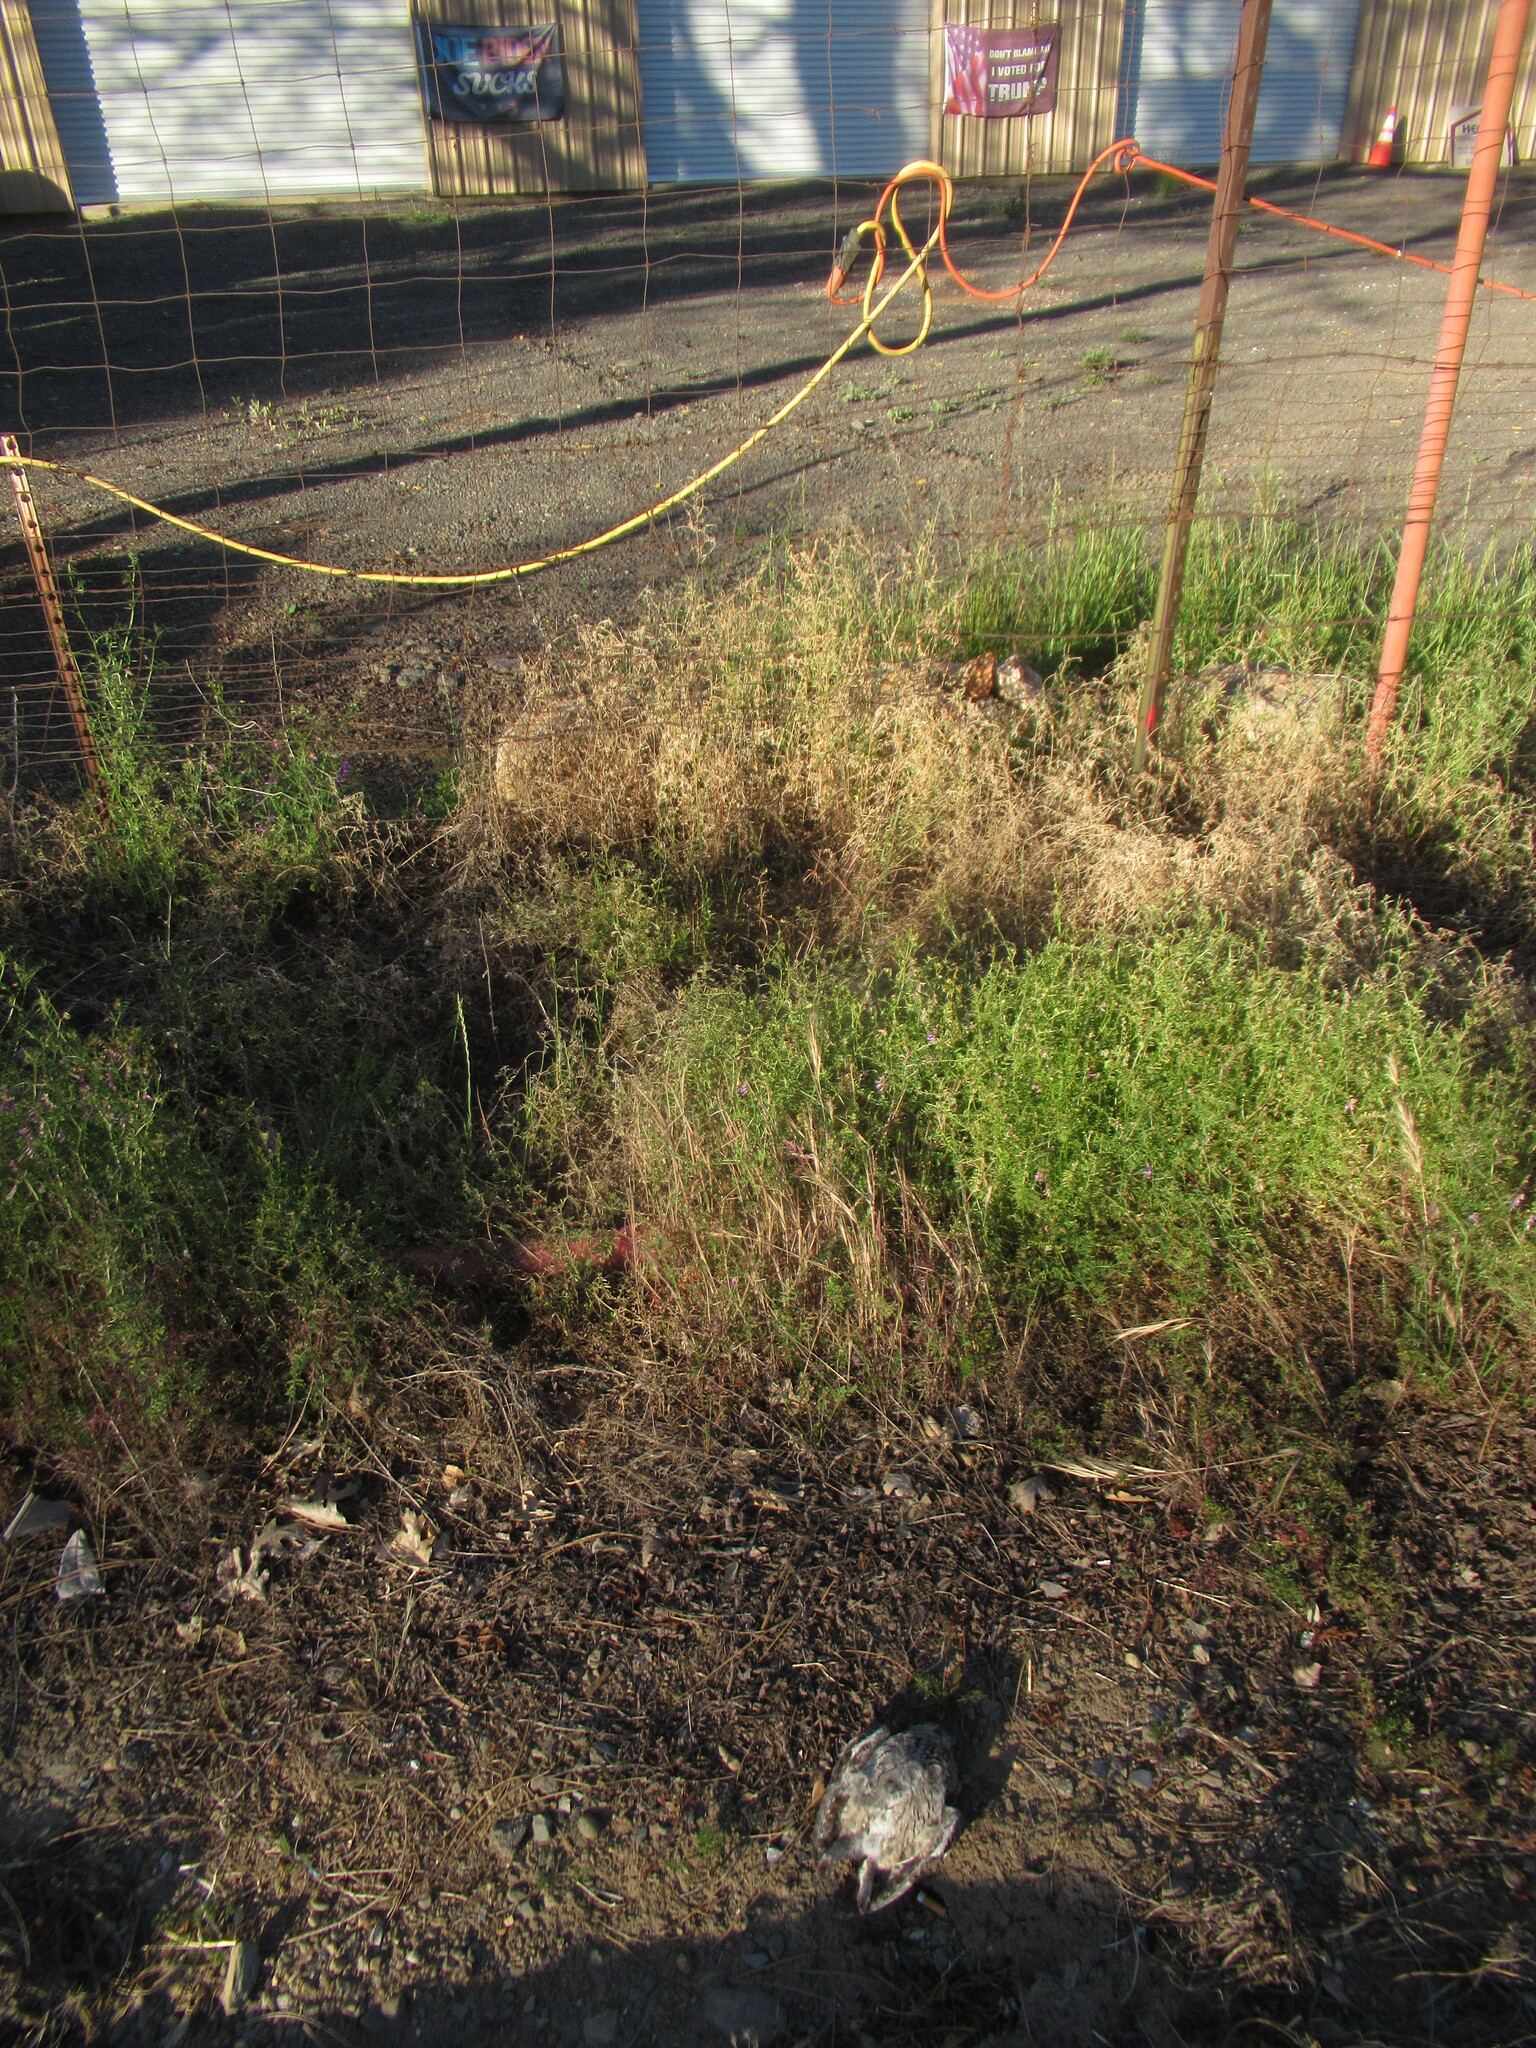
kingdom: Animalia
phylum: Chordata
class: Aves
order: Strigiformes
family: Strigidae
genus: Megascops
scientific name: Megascops kennicottii
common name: Western screech-owl
